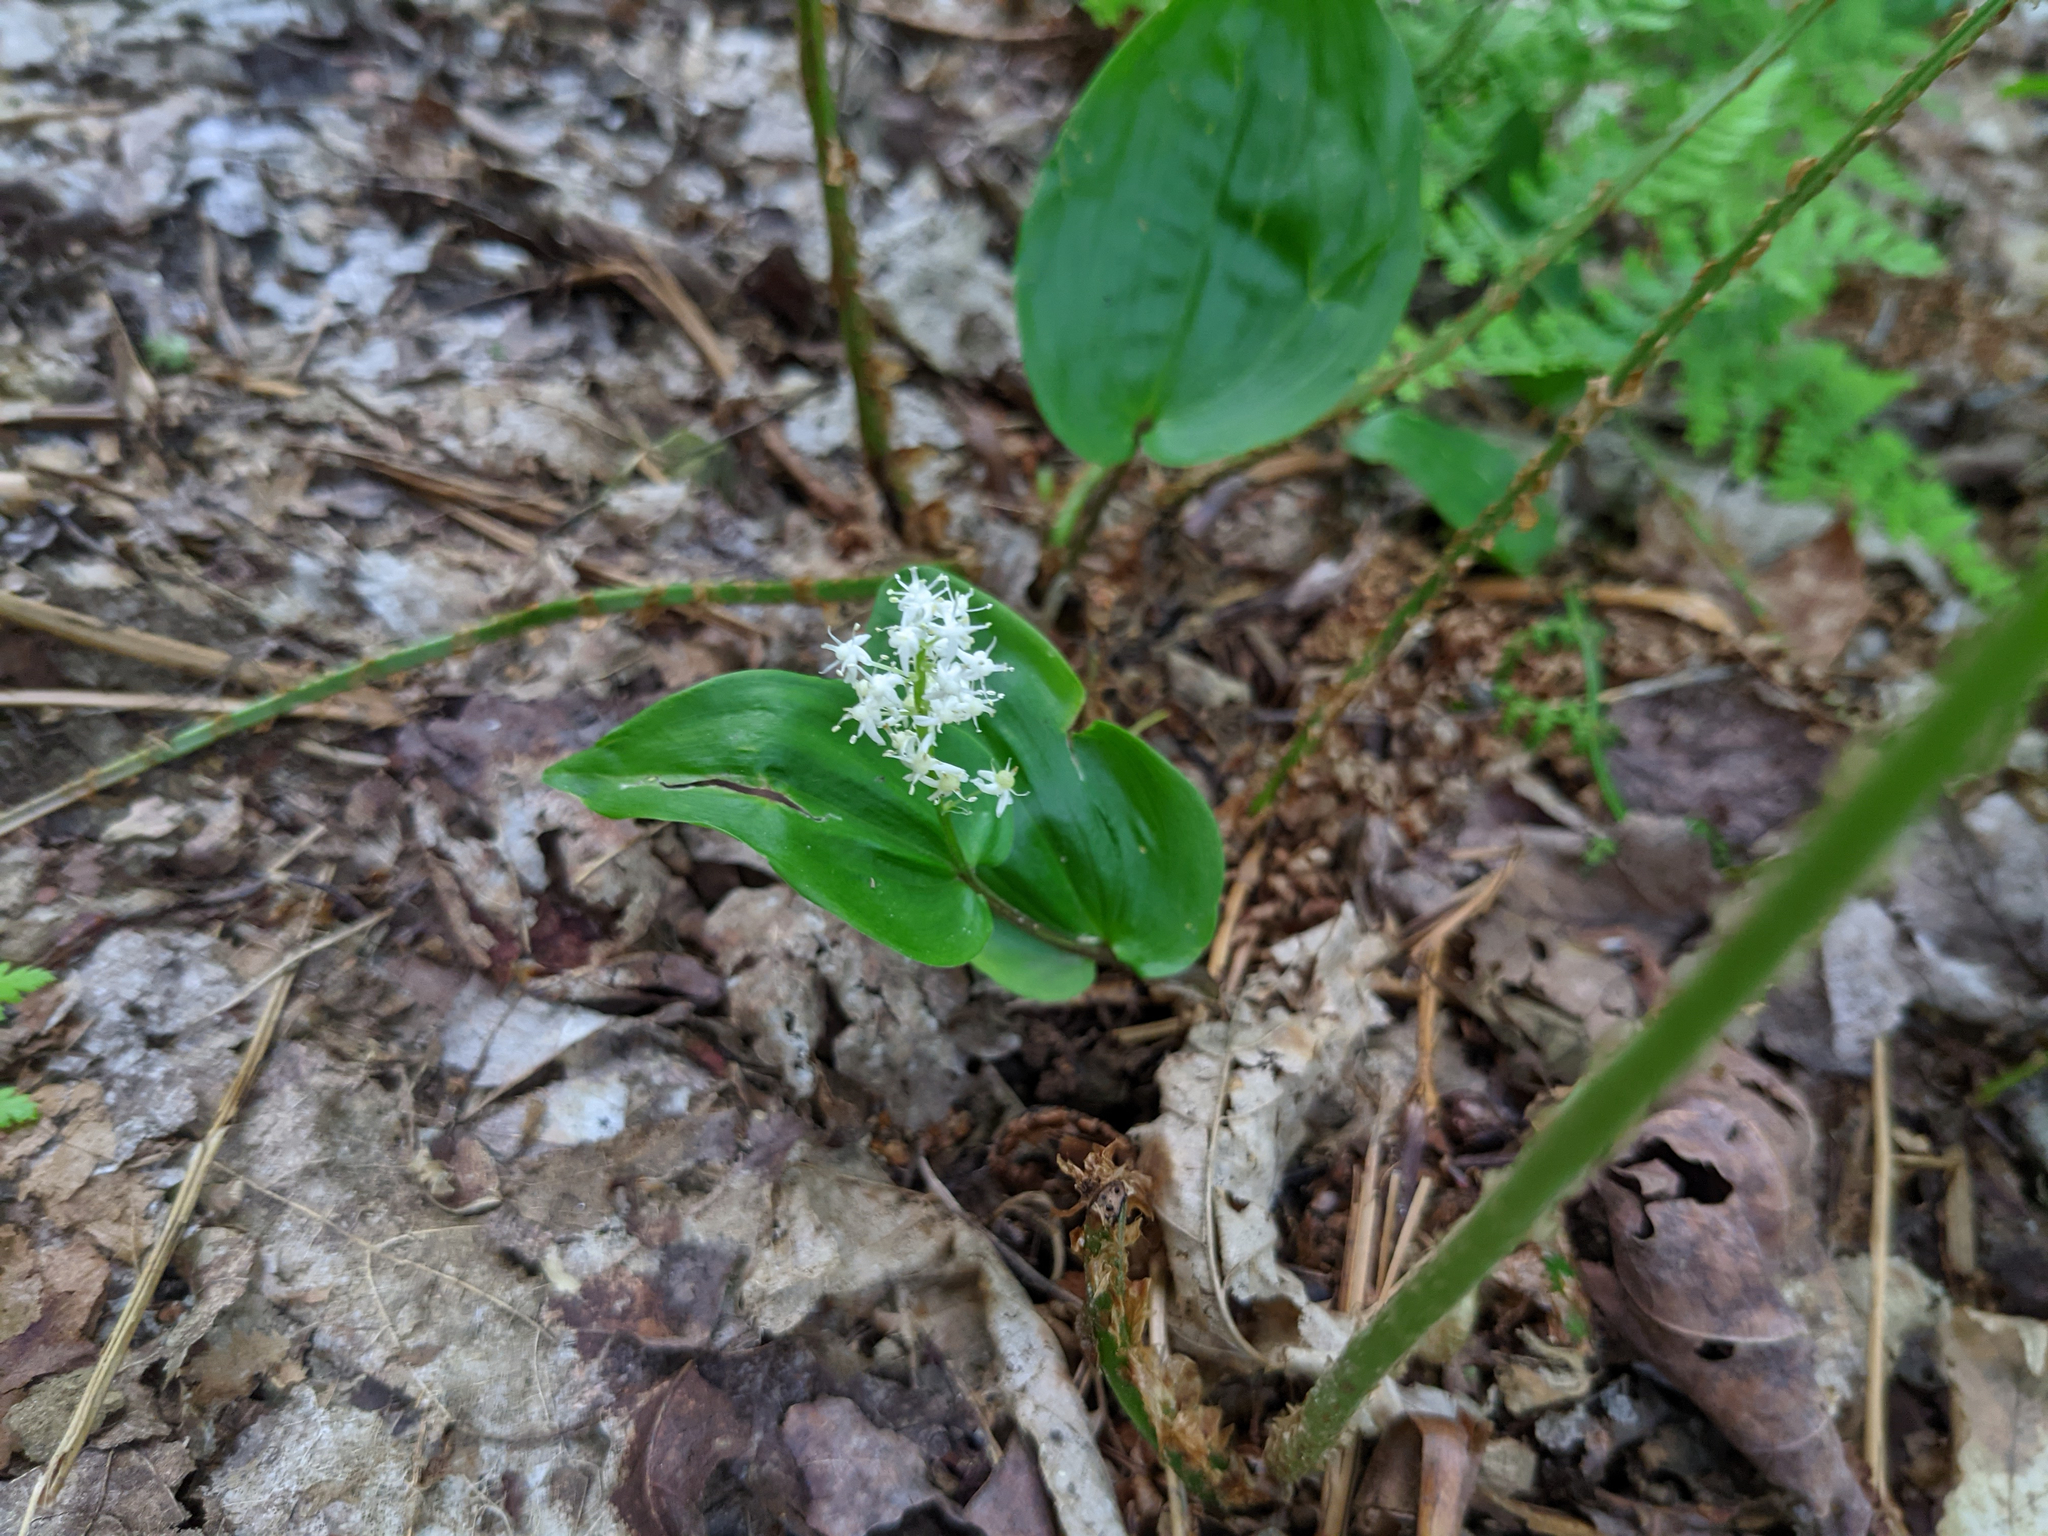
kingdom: Plantae
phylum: Tracheophyta
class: Liliopsida
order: Asparagales
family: Asparagaceae
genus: Maianthemum
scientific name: Maianthemum canadense
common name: False lily-of-the-valley
